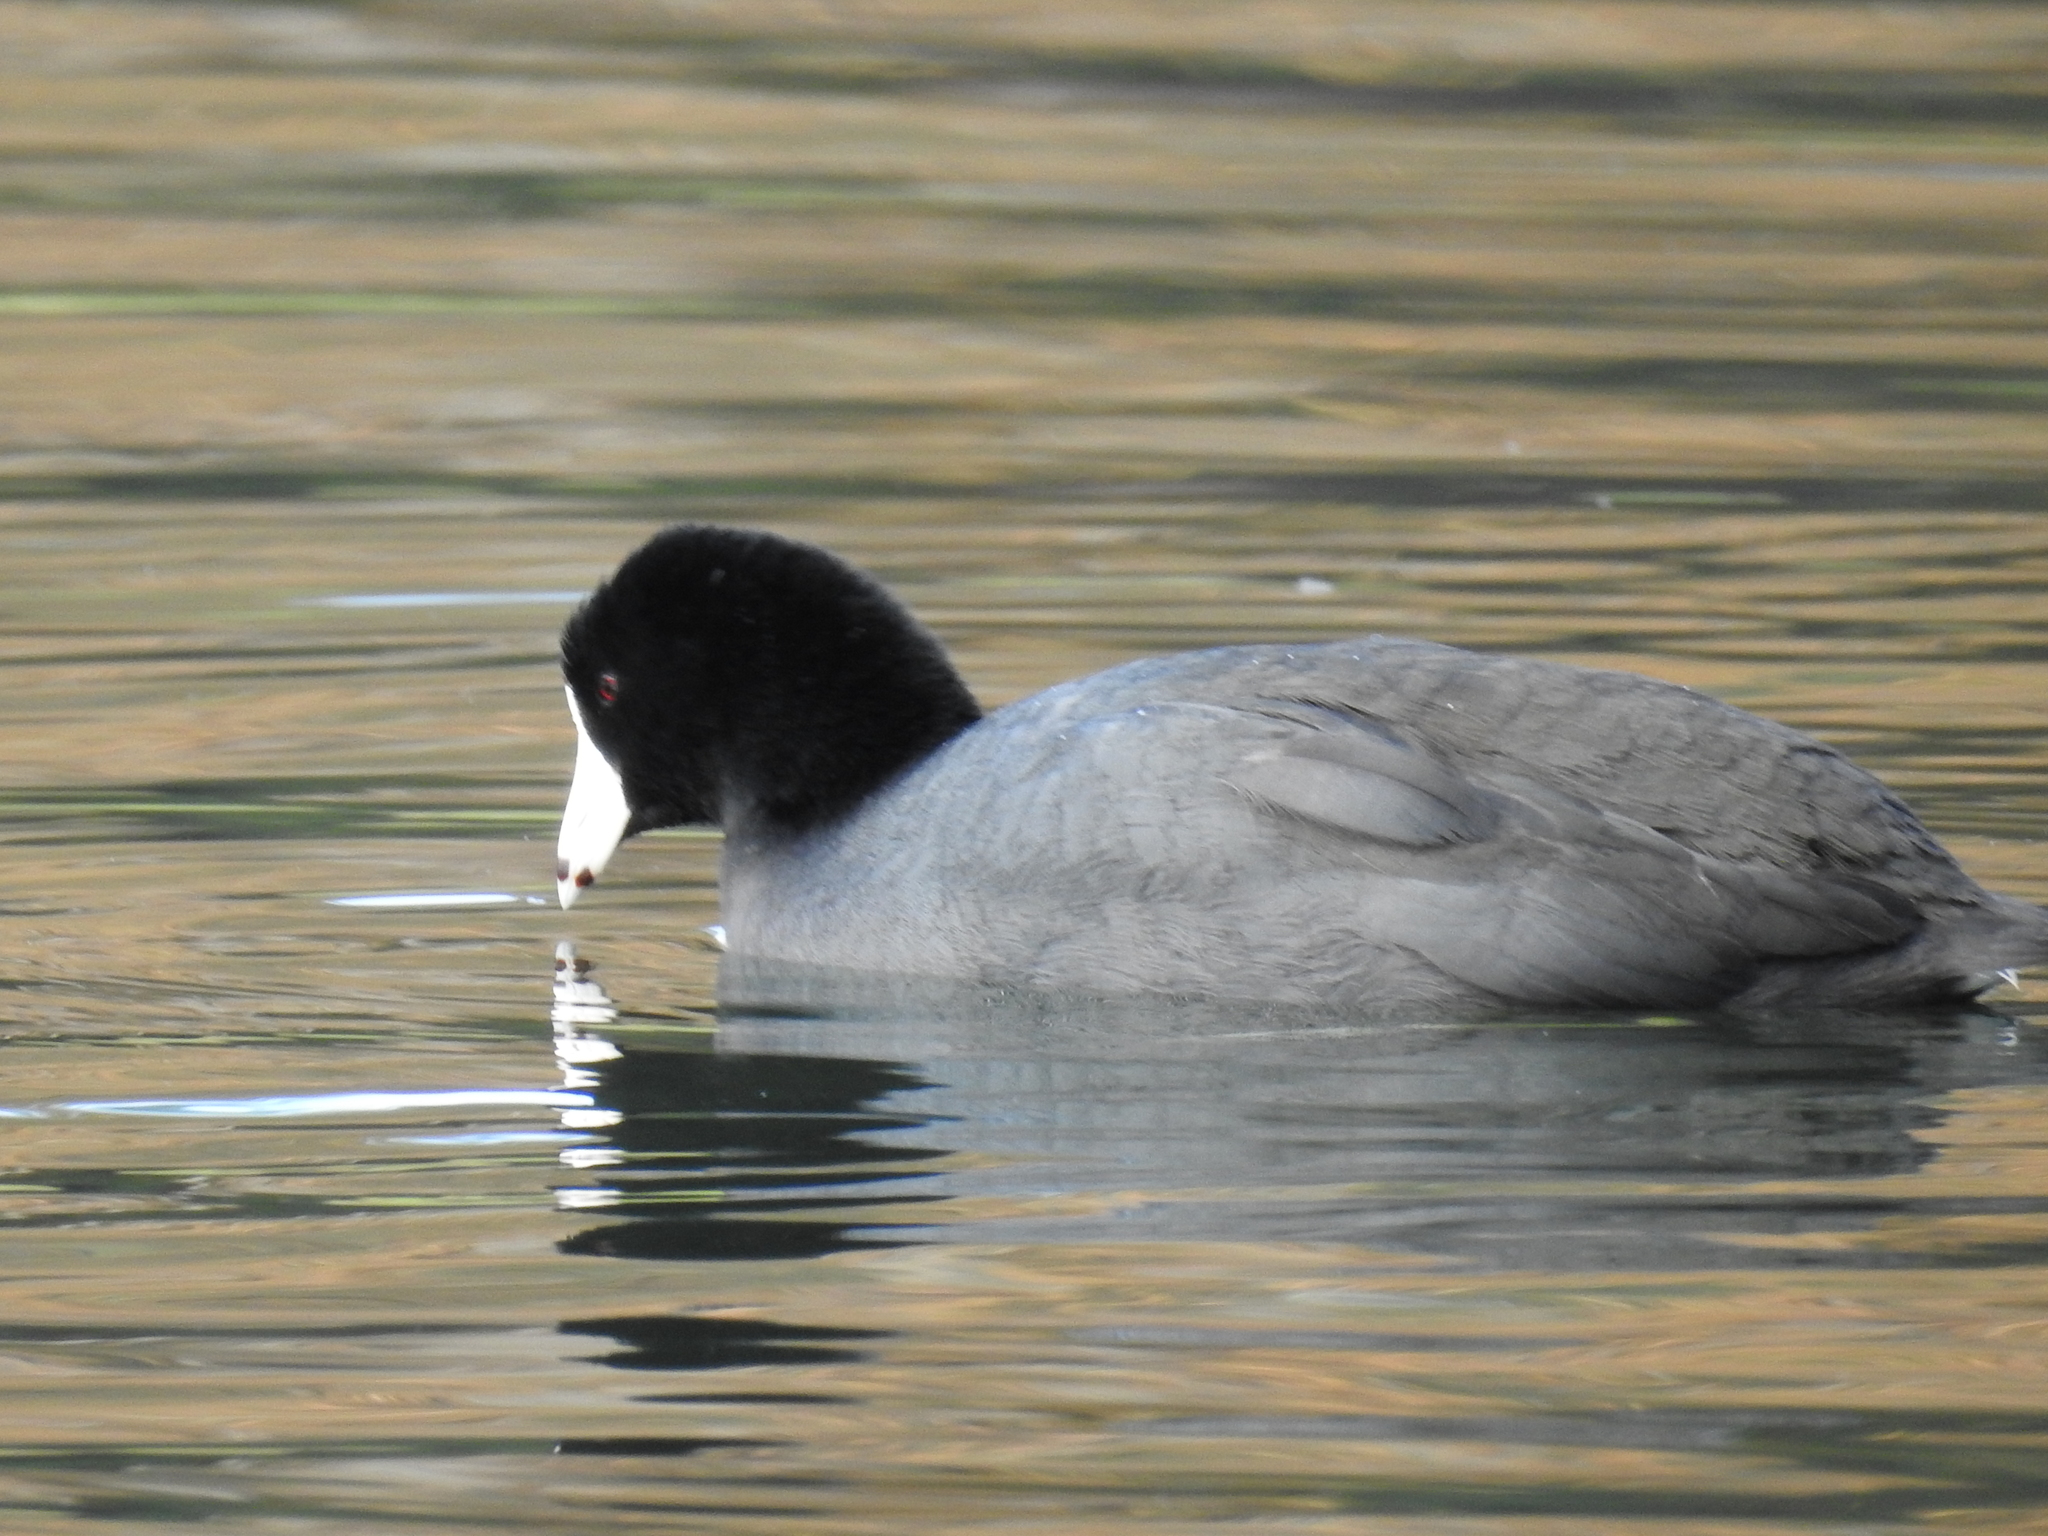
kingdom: Animalia
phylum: Chordata
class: Aves
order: Gruiformes
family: Rallidae
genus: Fulica
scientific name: Fulica americana
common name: American coot
